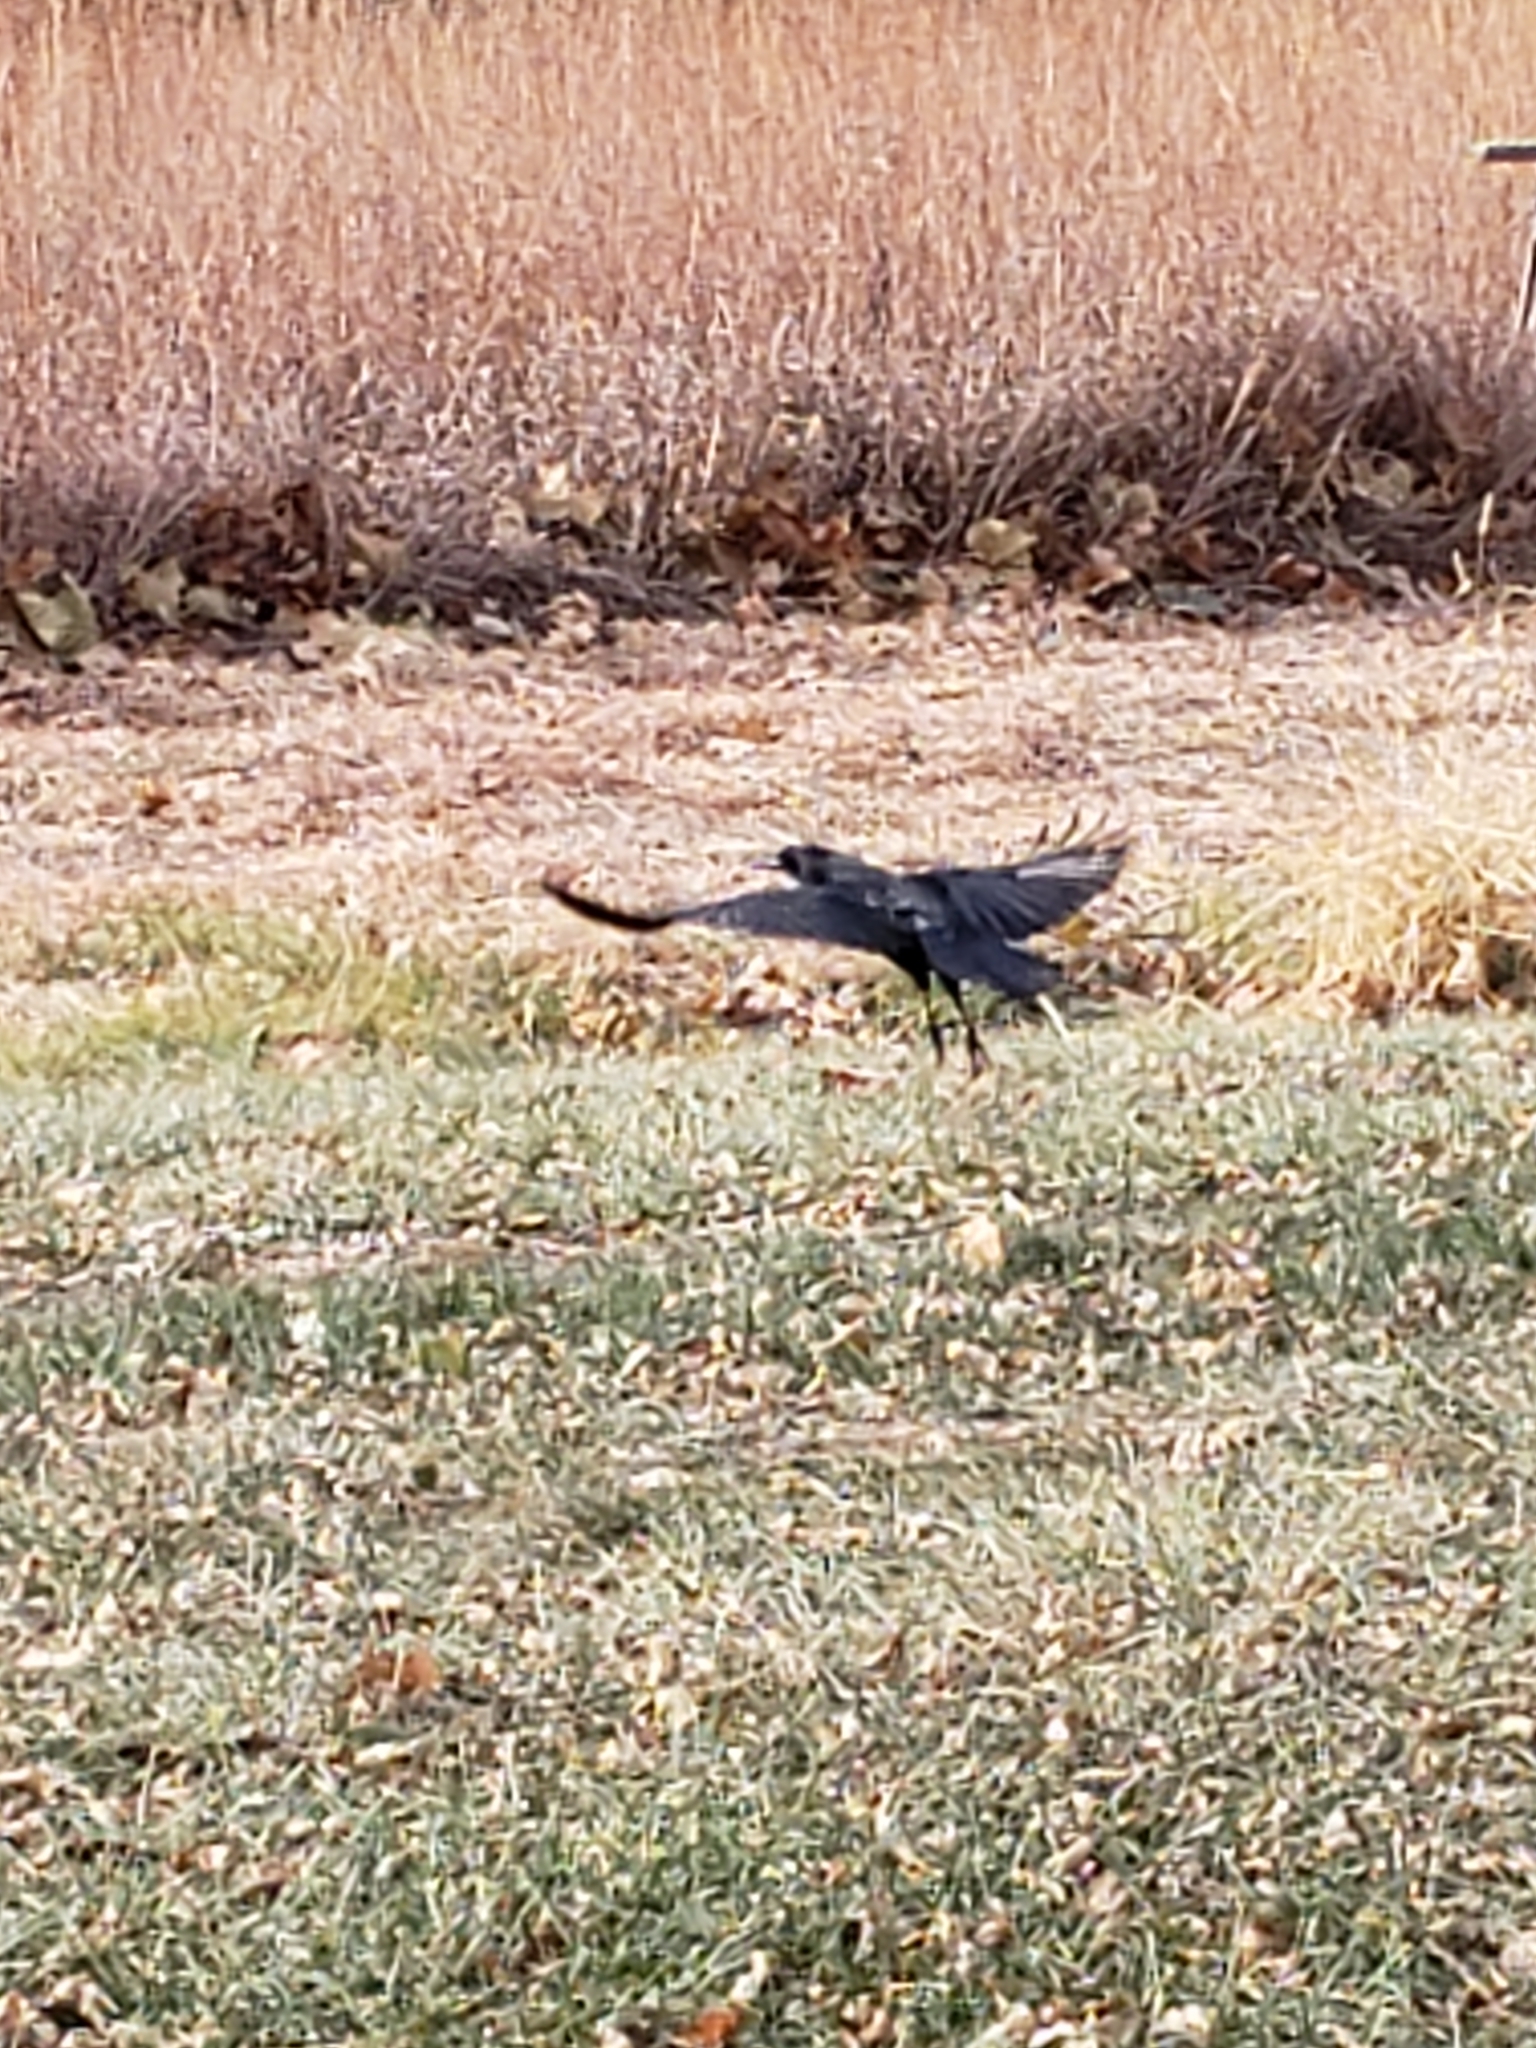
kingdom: Animalia
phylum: Chordata
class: Aves
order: Passeriformes
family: Corvidae
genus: Corvus
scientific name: Corvus brachyrhynchos
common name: American crow
